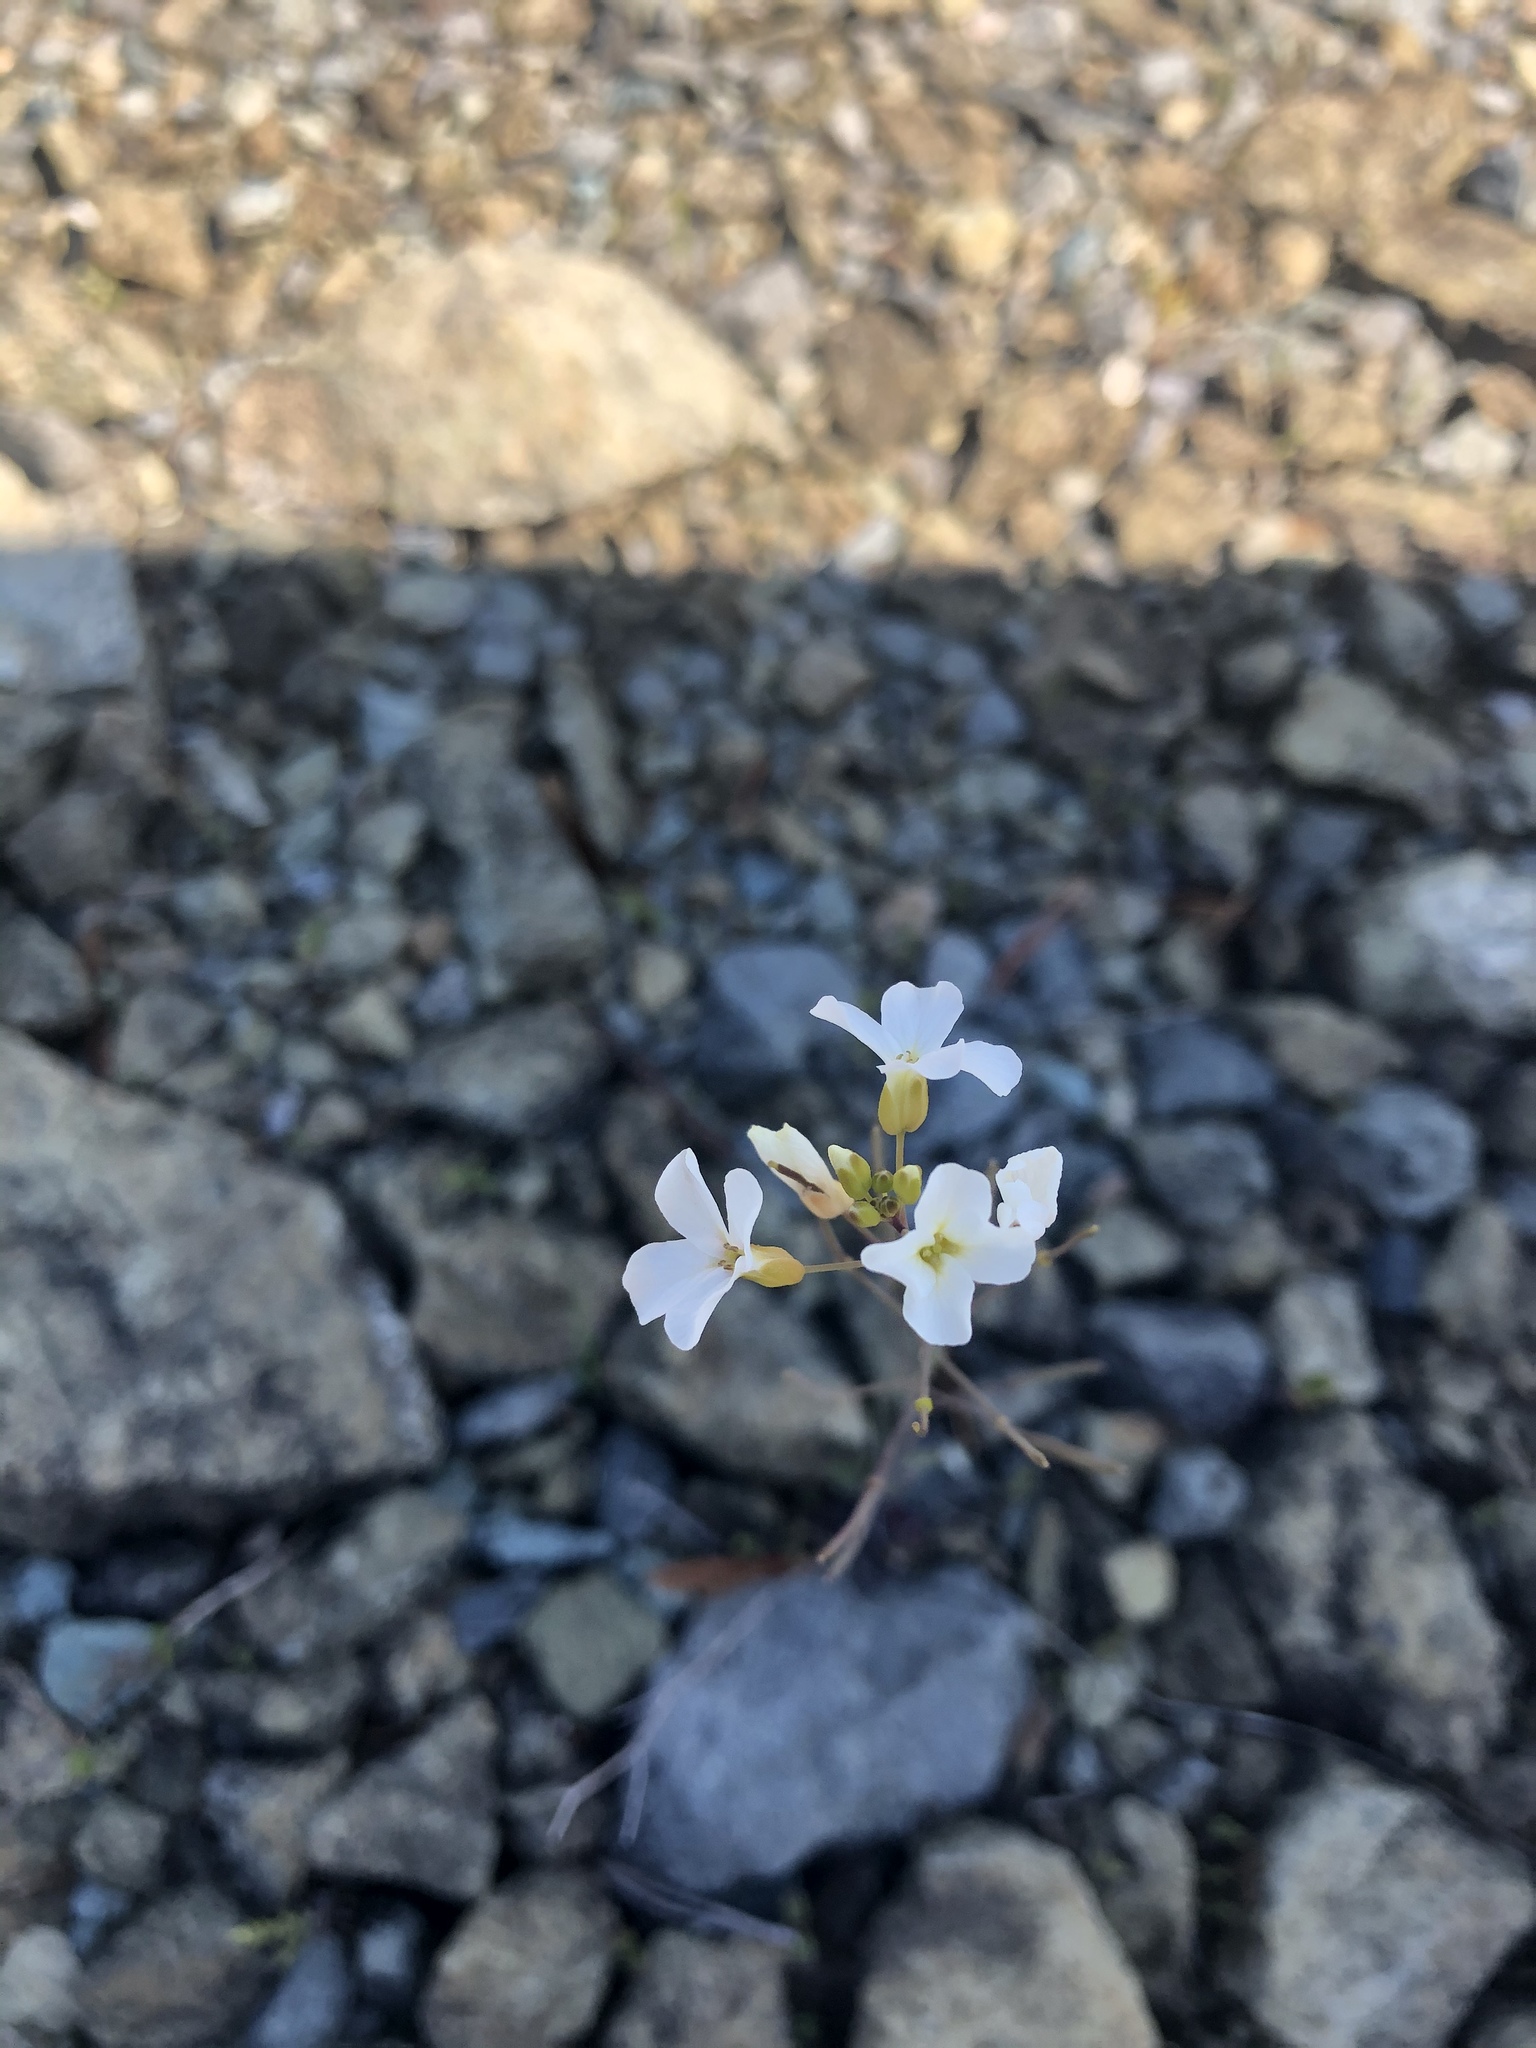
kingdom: Plantae
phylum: Tracheophyta
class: Magnoliopsida
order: Brassicales
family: Brassicaceae
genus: Arabidopsis
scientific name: Arabidopsis lyrata
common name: Lyrate rockcress
